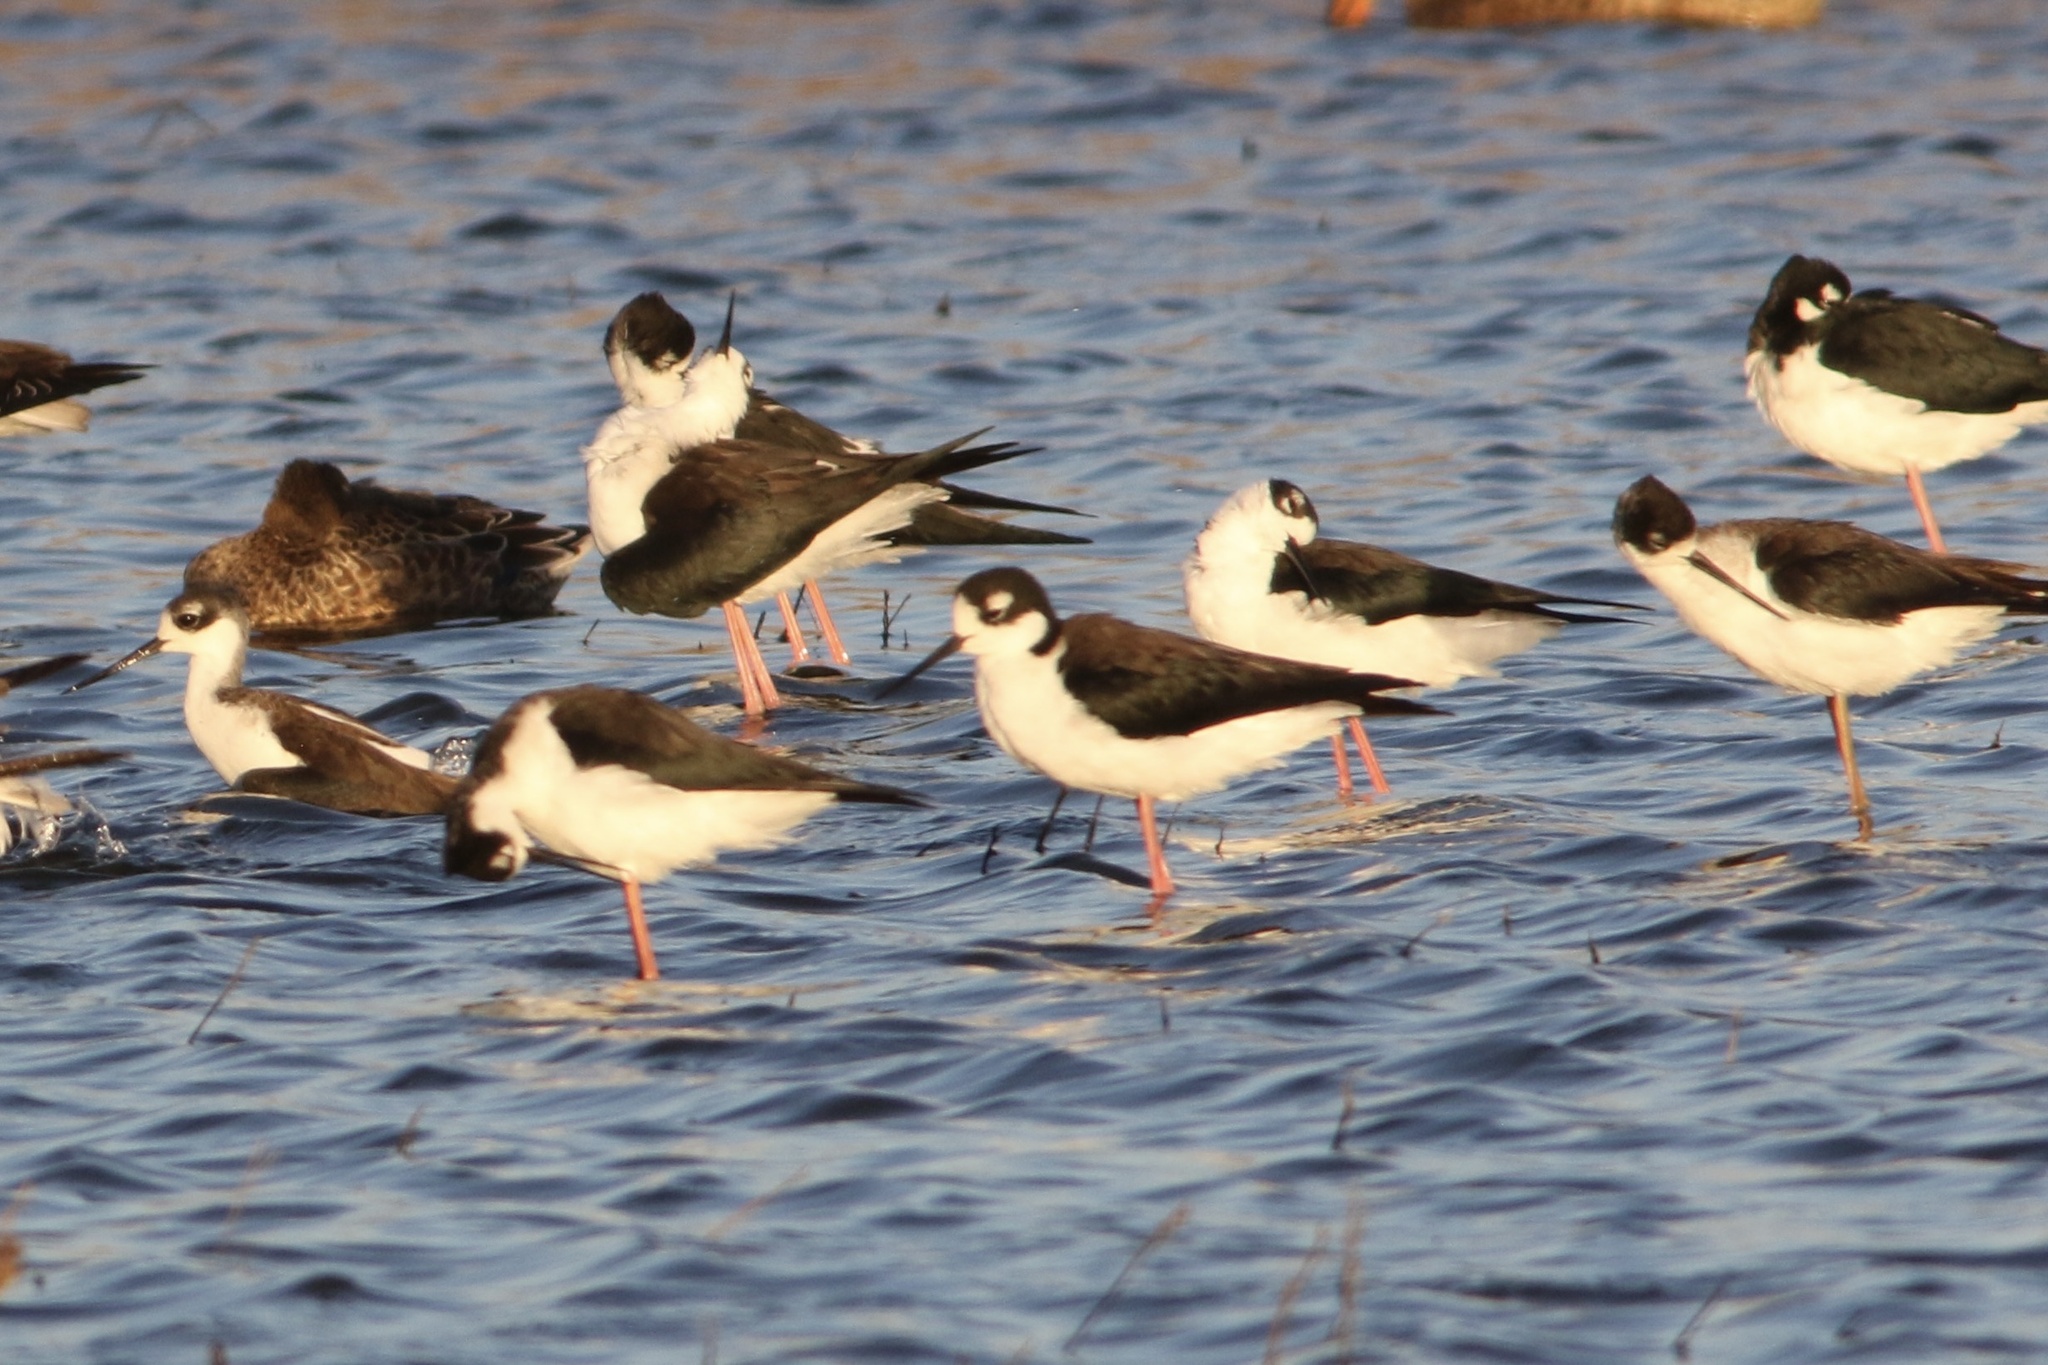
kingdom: Animalia
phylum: Chordata
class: Aves
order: Charadriiformes
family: Recurvirostridae
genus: Himantopus
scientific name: Himantopus mexicanus
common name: Black-necked stilt
